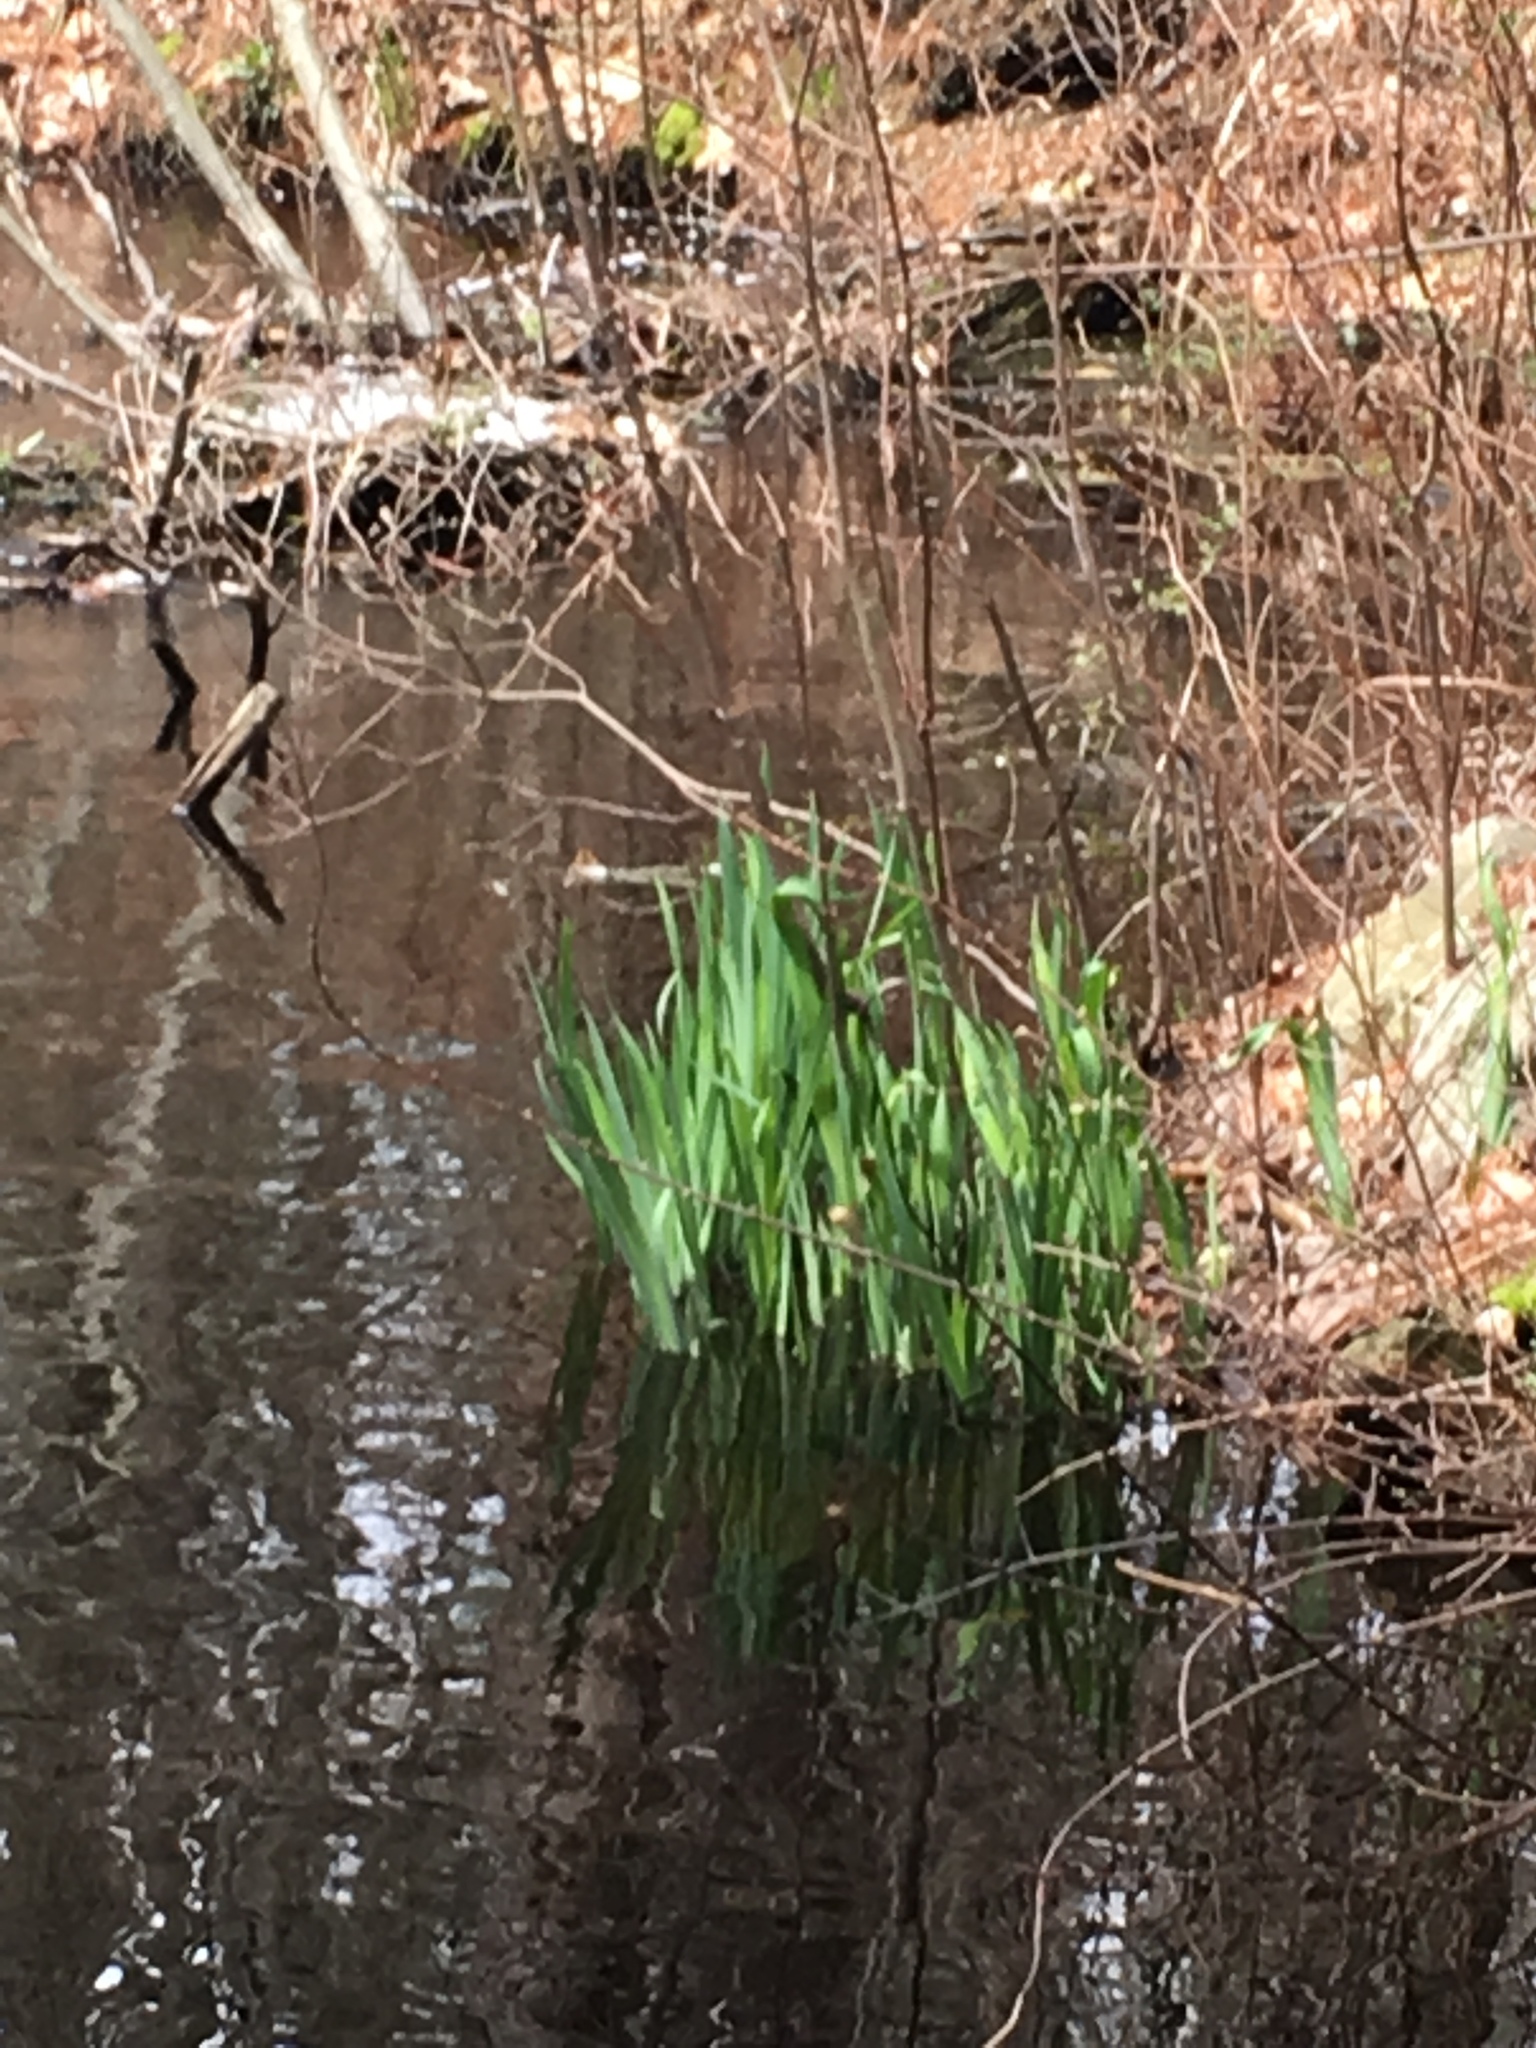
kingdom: Plantae
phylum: Tracheophyta
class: Liliopsida
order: Asparagales
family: Iridaceae
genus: Iris
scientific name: Iris pseudacorus
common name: Yellow flag
